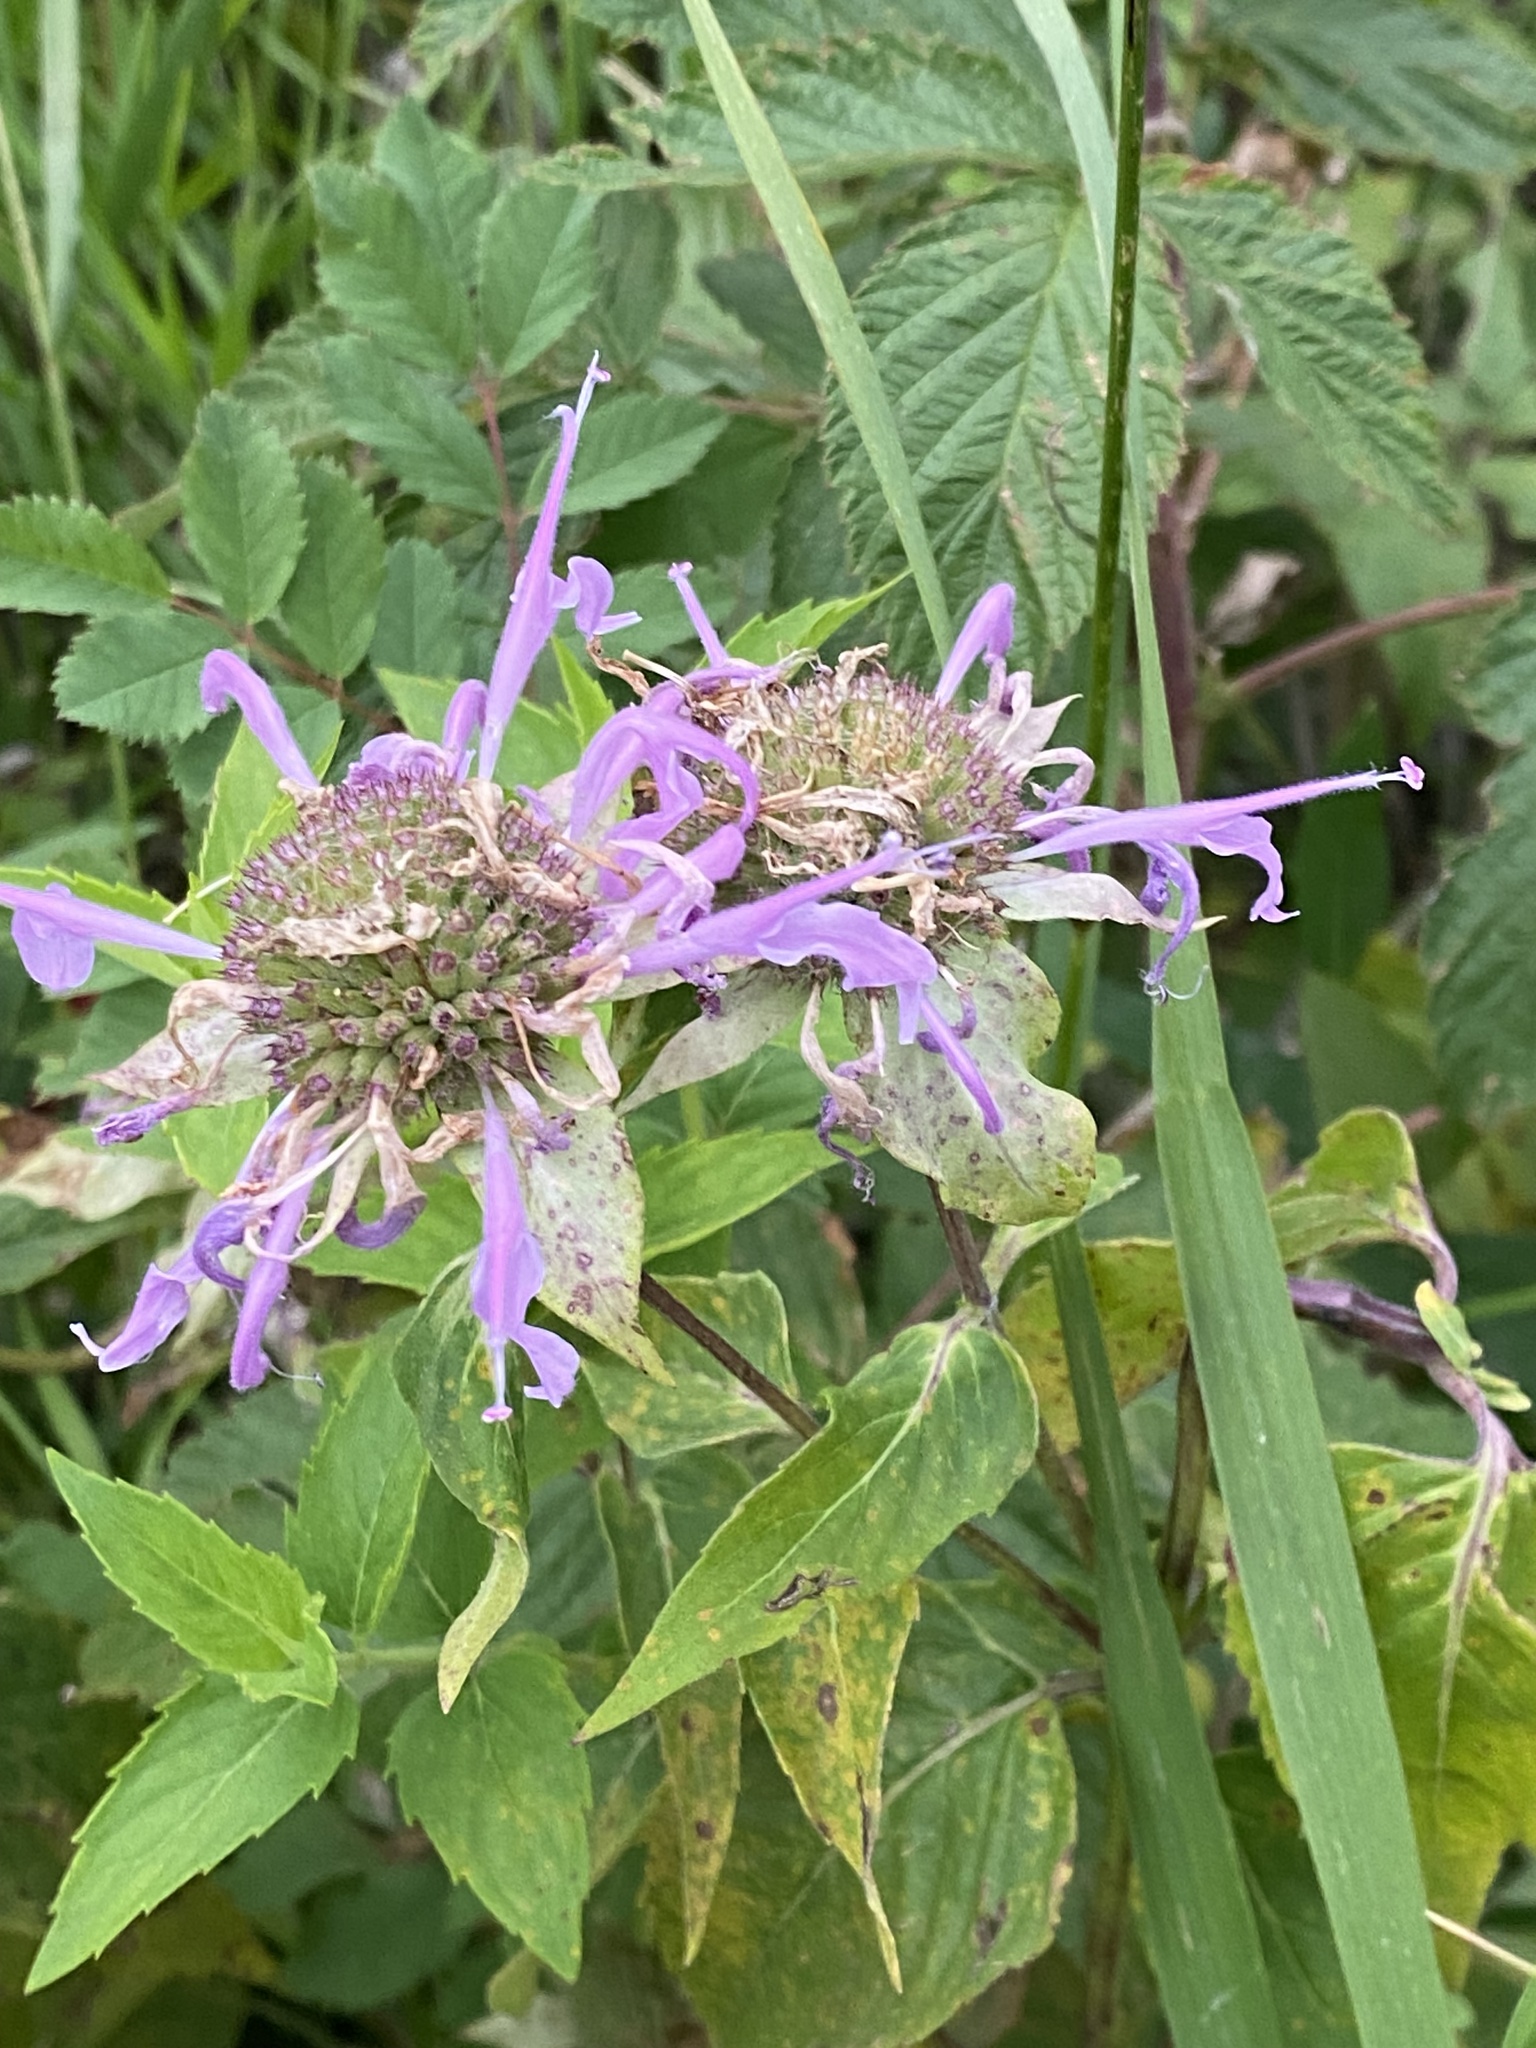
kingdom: Plantae
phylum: Tracheophyta
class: Magnoliopsida
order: Lamiales
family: Lamiaceae
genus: Monarda
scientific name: Monarda fistulosa
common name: Purple beebalm
